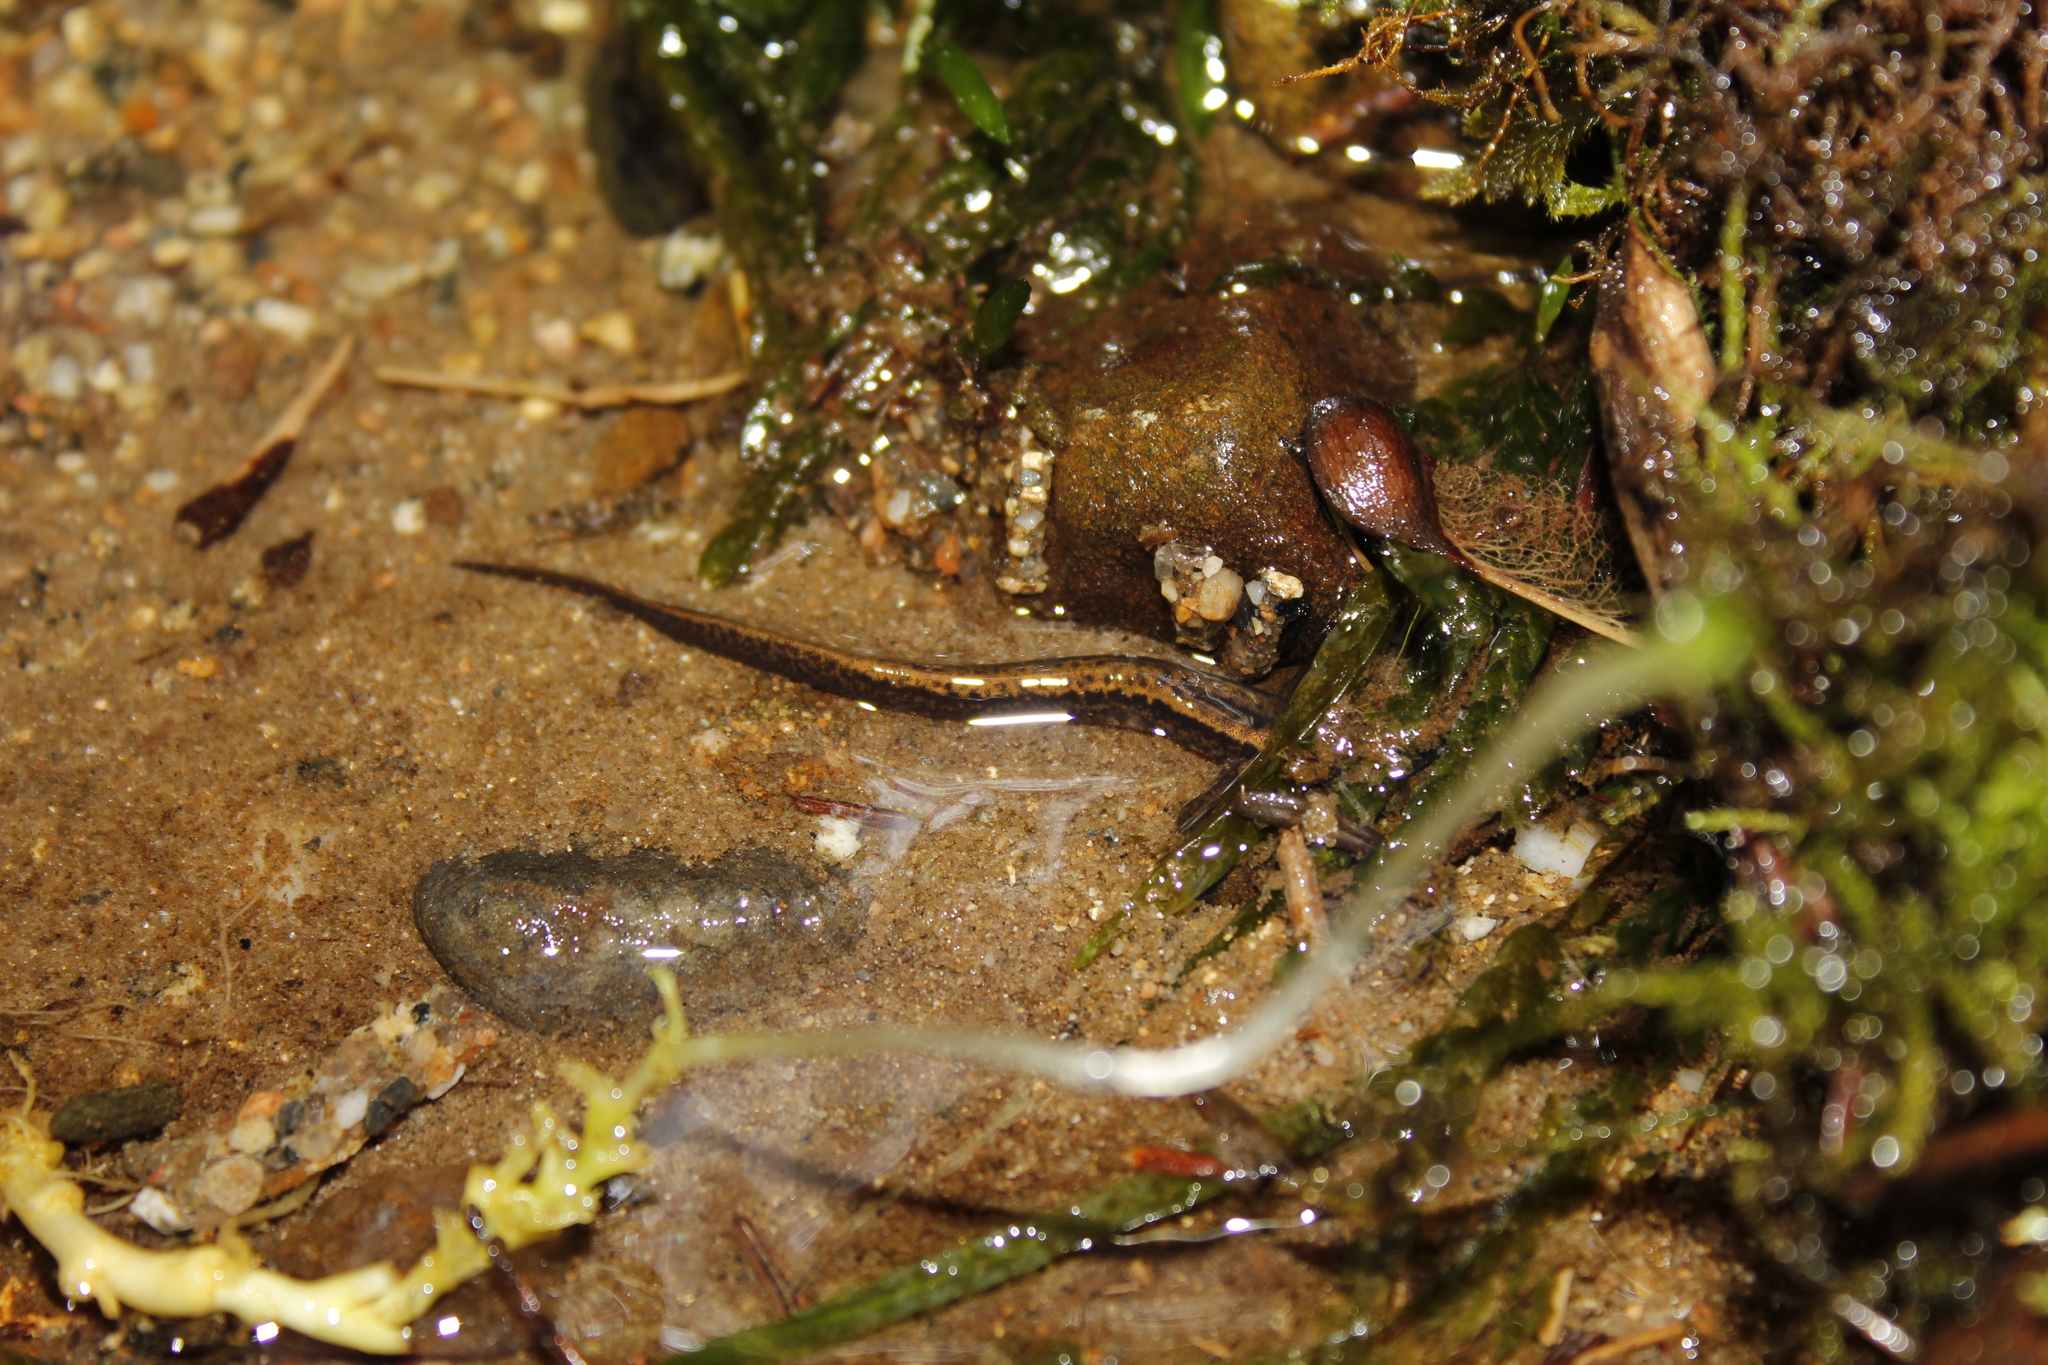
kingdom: Animalia
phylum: Chordata
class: Amphibia
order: Caudata
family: Plethodontidae
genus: Eurycea
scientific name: Eurycea bislineata
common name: Northern two-lined salamander
